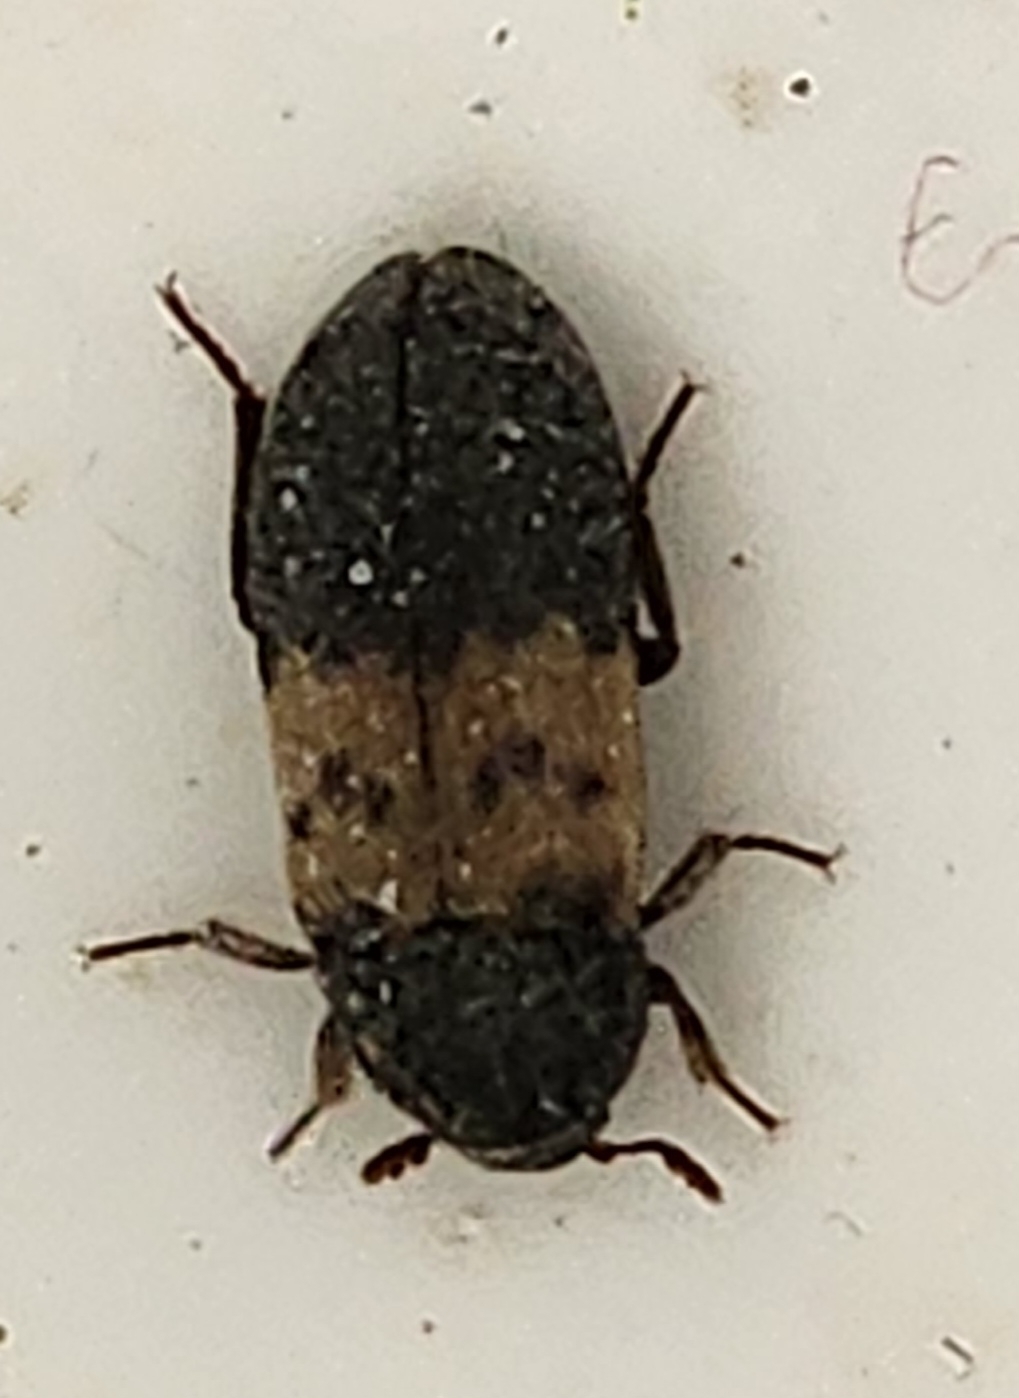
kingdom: Animalia
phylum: Arthropoda
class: Insecta
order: Coleoptera
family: Dermestidae
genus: Dermestes
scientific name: Dermestes lardarius
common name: Larder beetle
